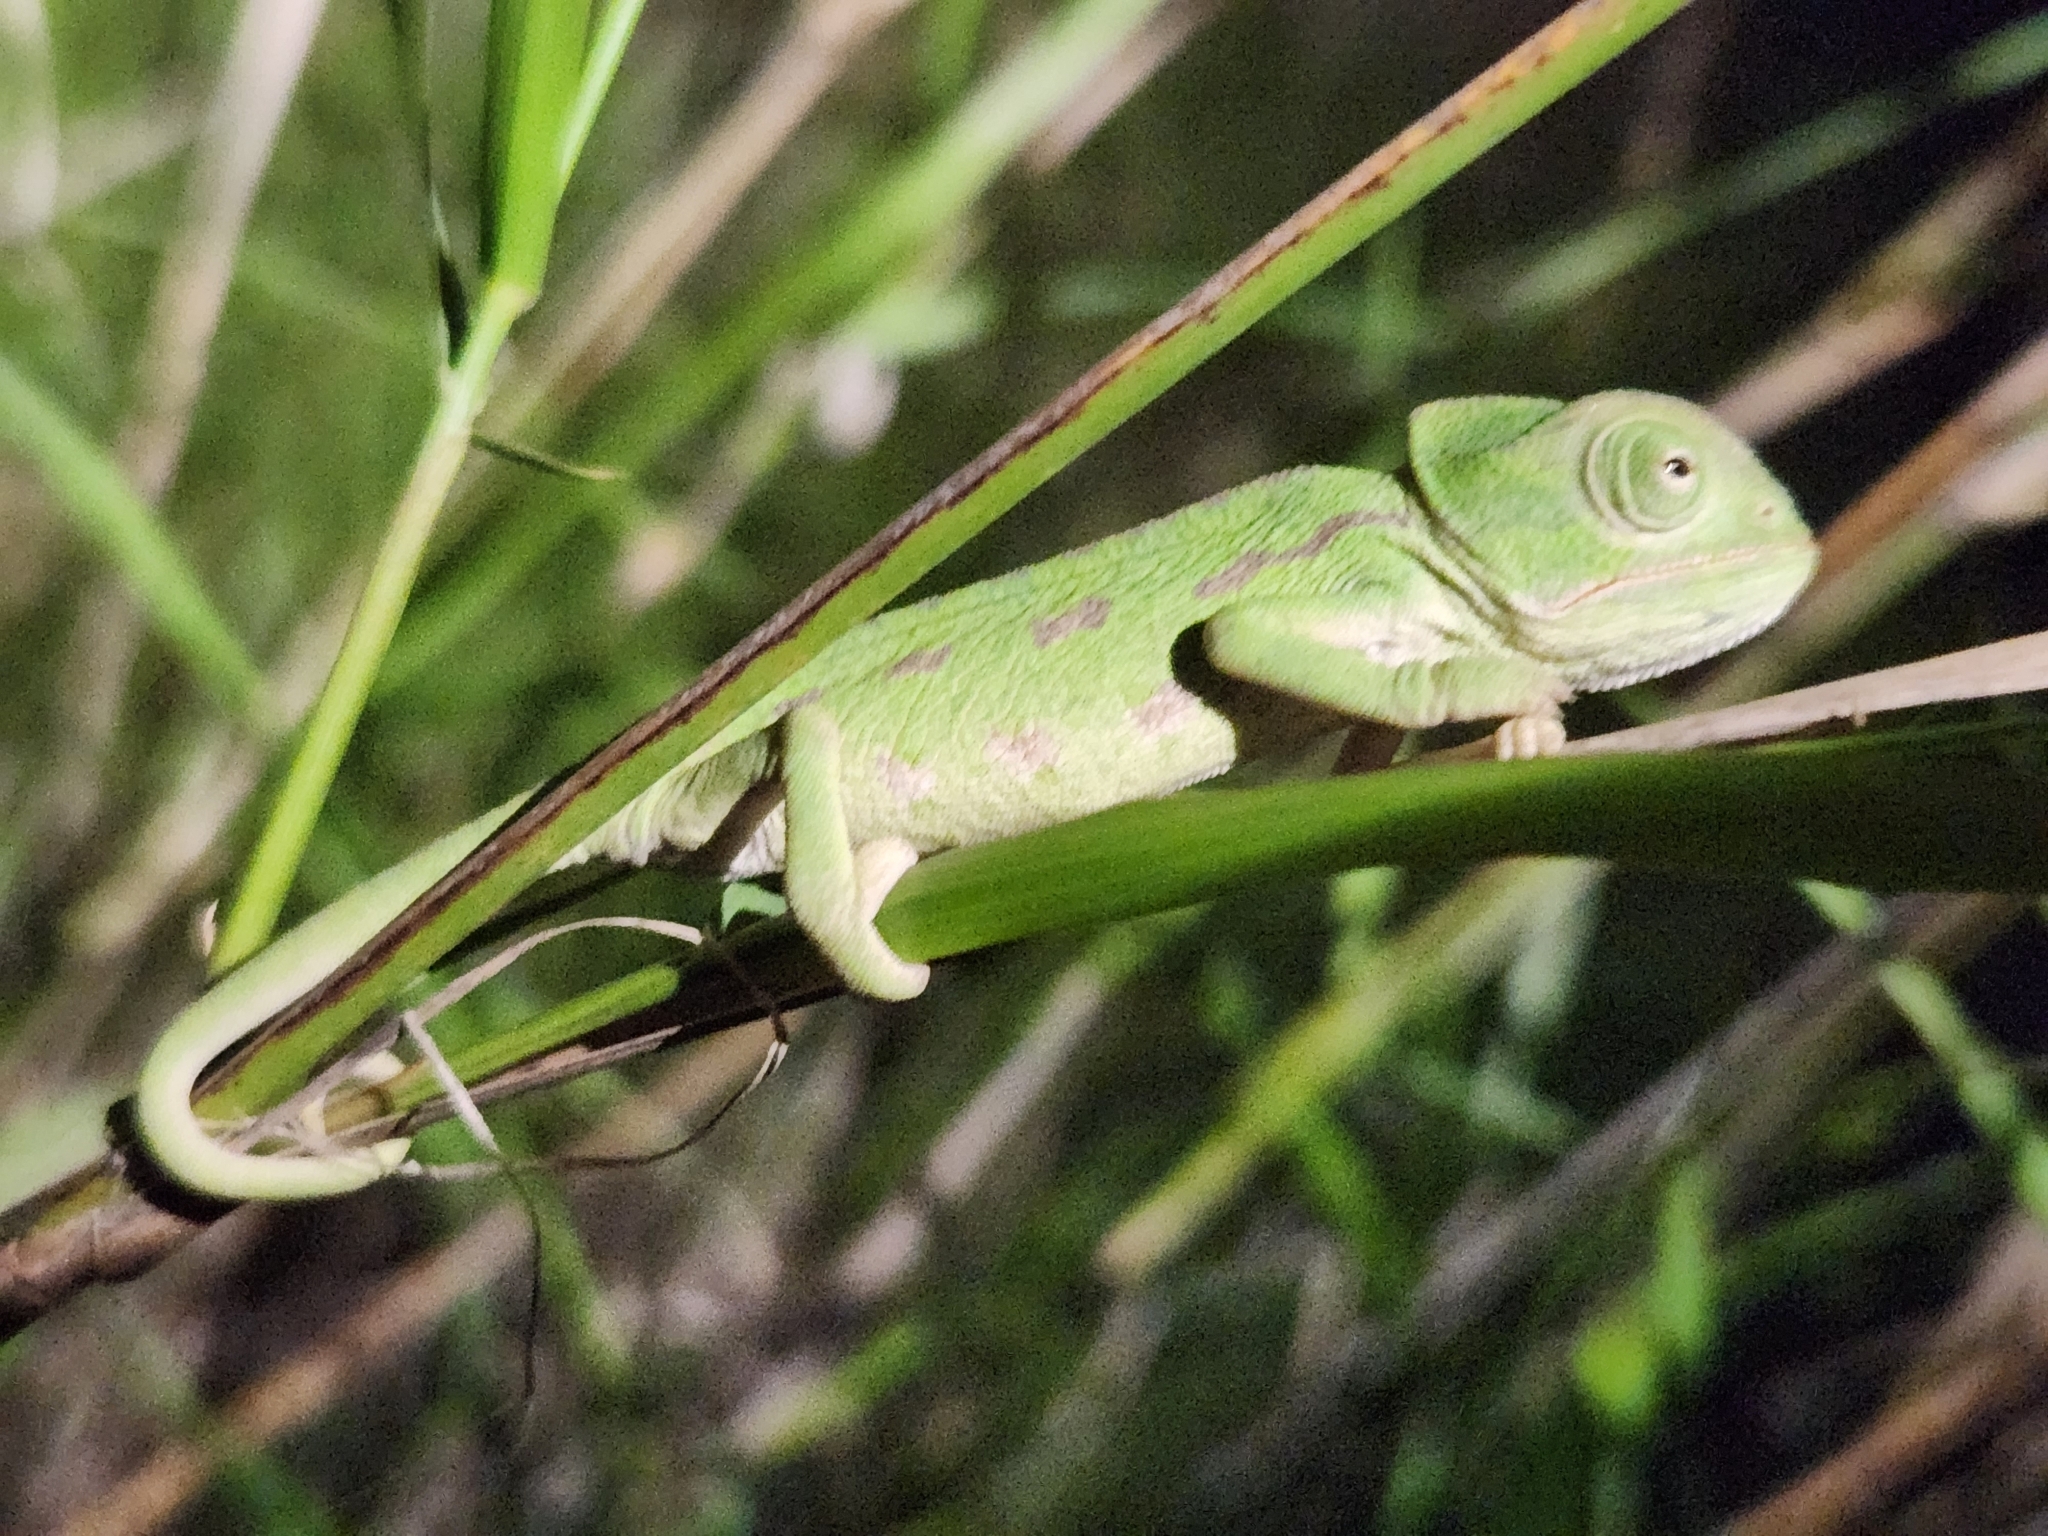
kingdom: Animalia
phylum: Chordata
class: Squamata
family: Chamaeleonidae
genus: Chamaeleo
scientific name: Chamaeleo chamaeleon
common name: Mediterranean chameleon
